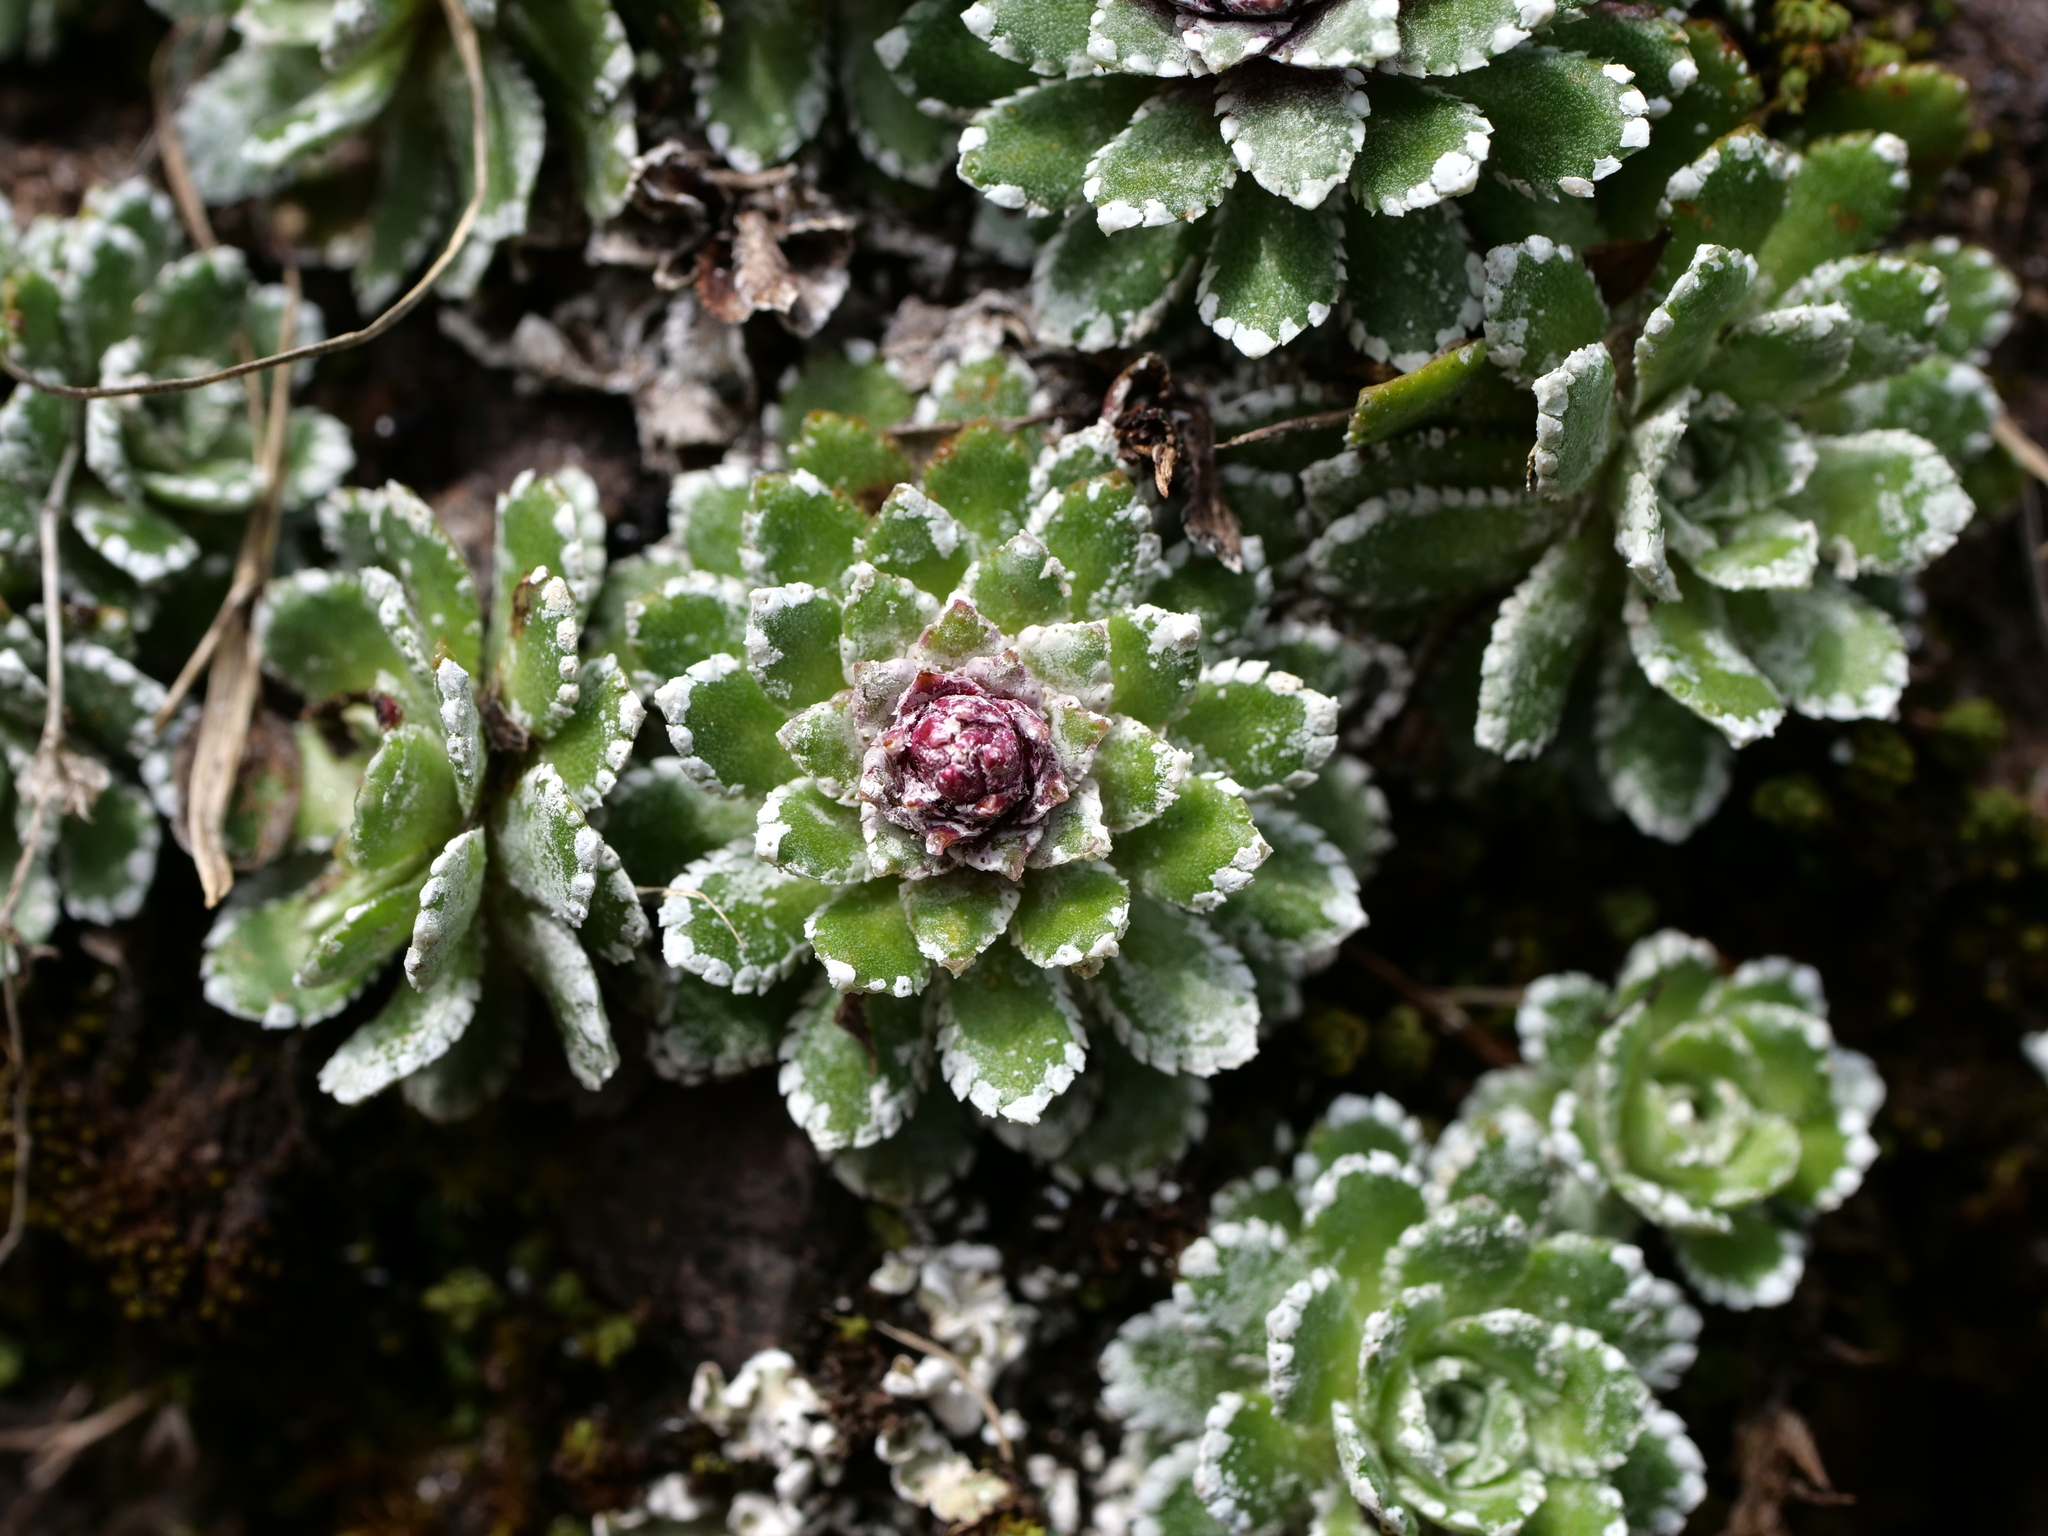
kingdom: Plantae
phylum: Tracheophyta
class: Magnoliopsida
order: Saxifragales
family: Saxifragaceae
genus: Saxifraga
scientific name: Saxifraga paniculata
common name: Livelong saxifrage
